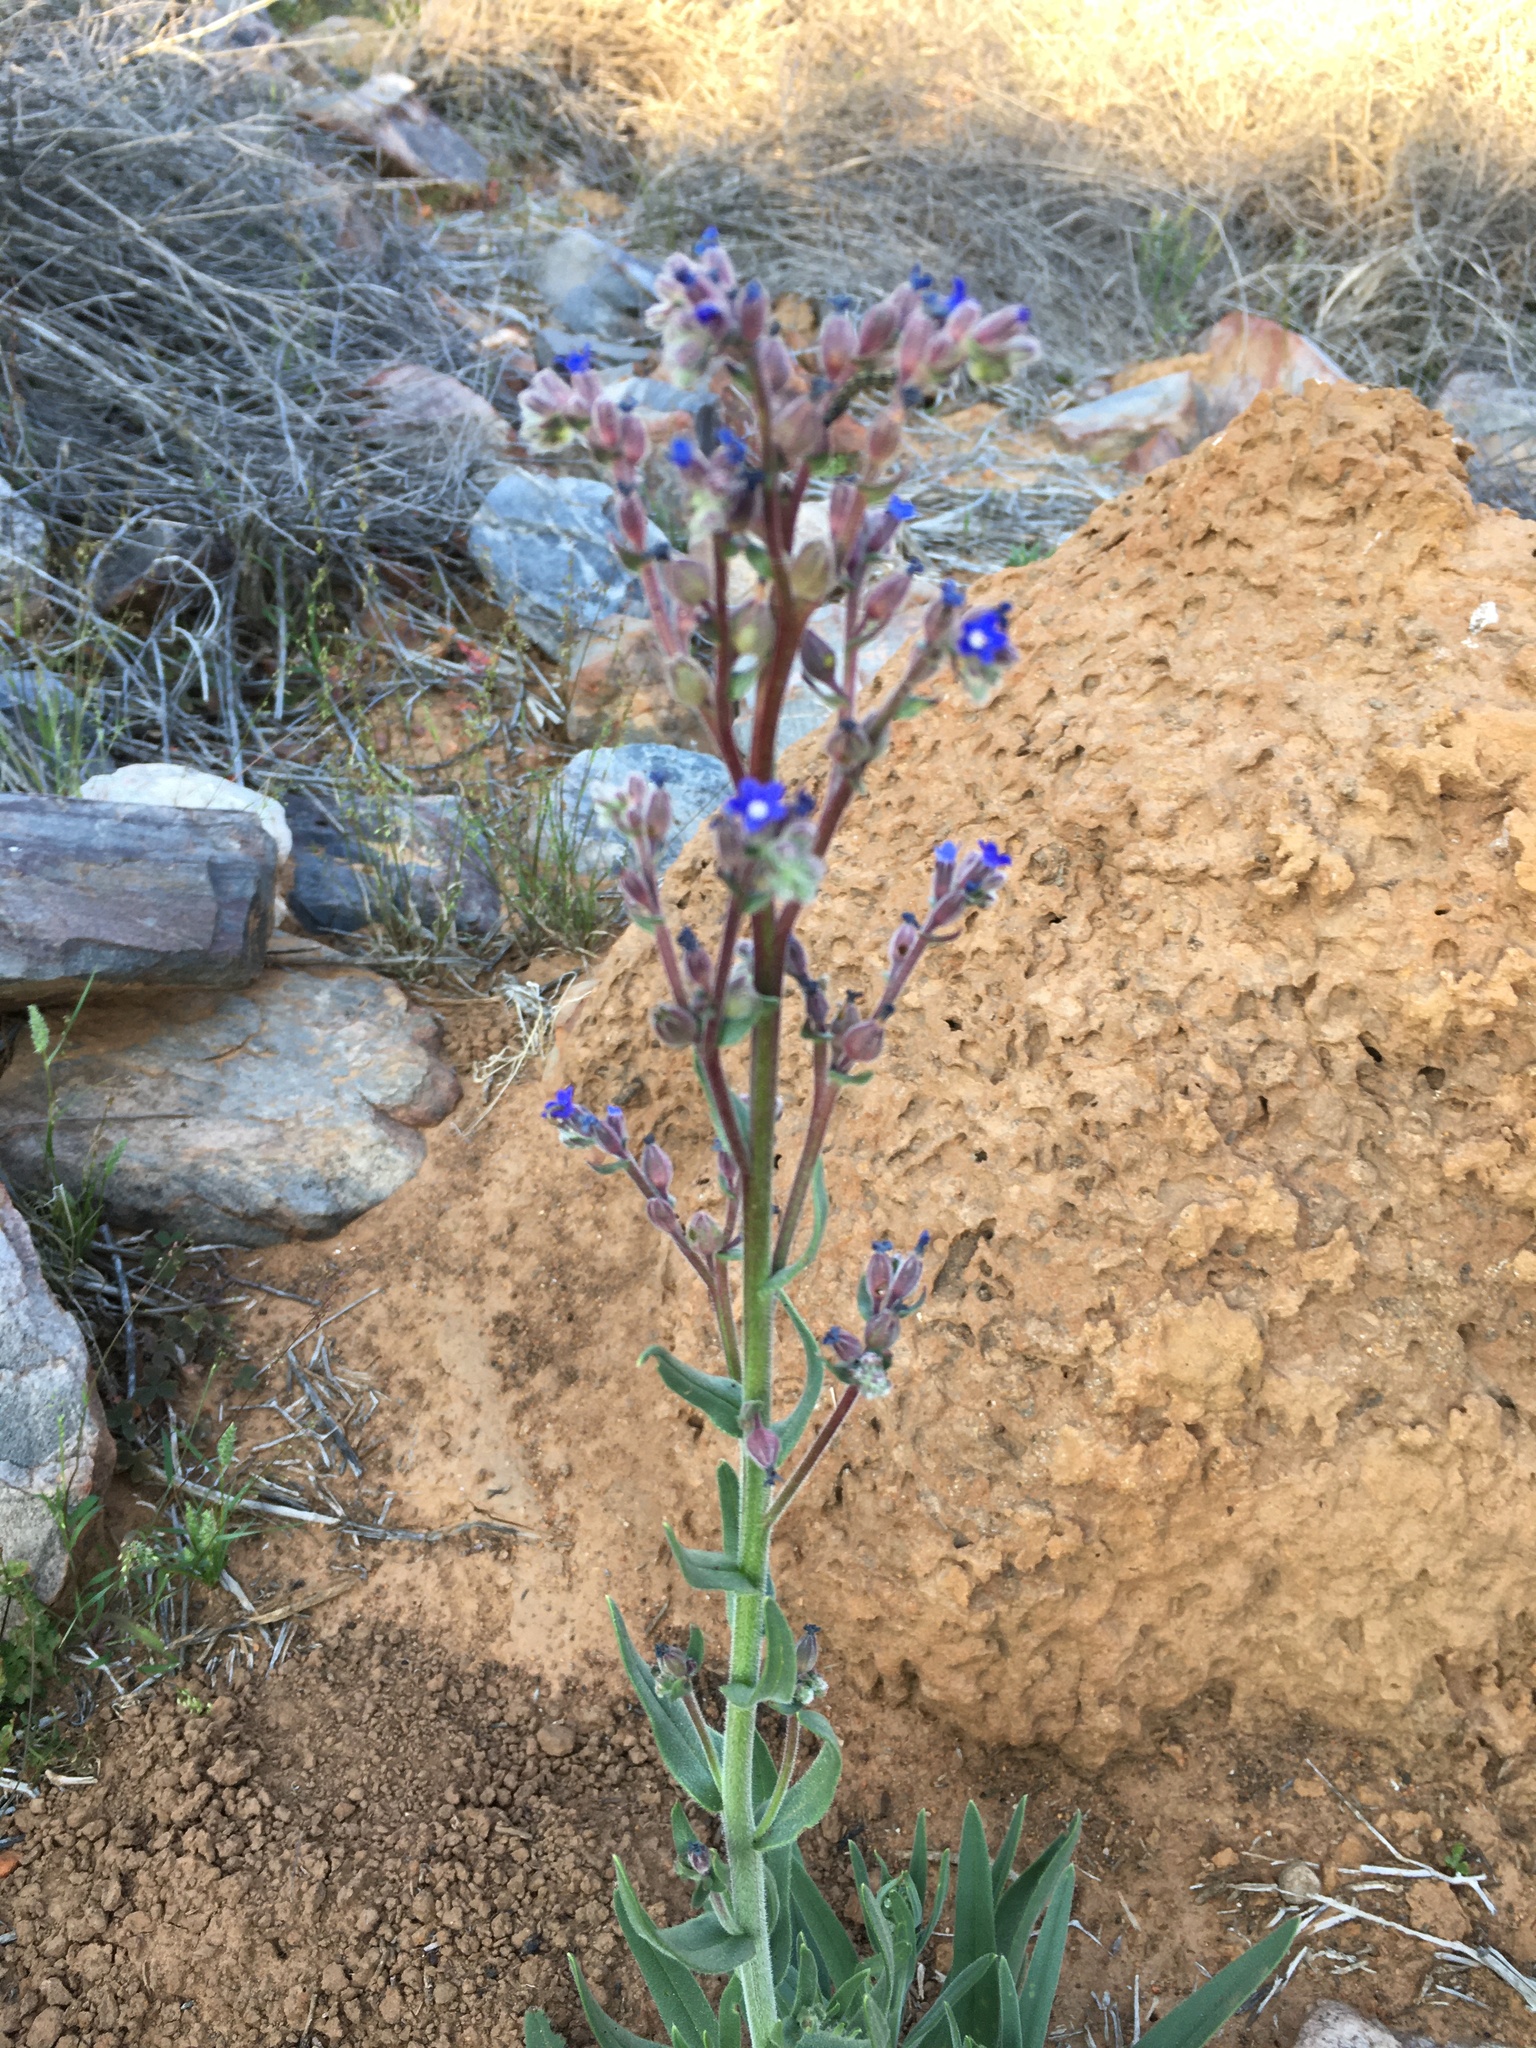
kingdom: Plantae
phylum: Tracheophyta
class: Magnoliopsida
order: Boraginales
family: Boraginaceae
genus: Anchusa
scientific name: Anchusa capensis
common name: Cape bugloss
